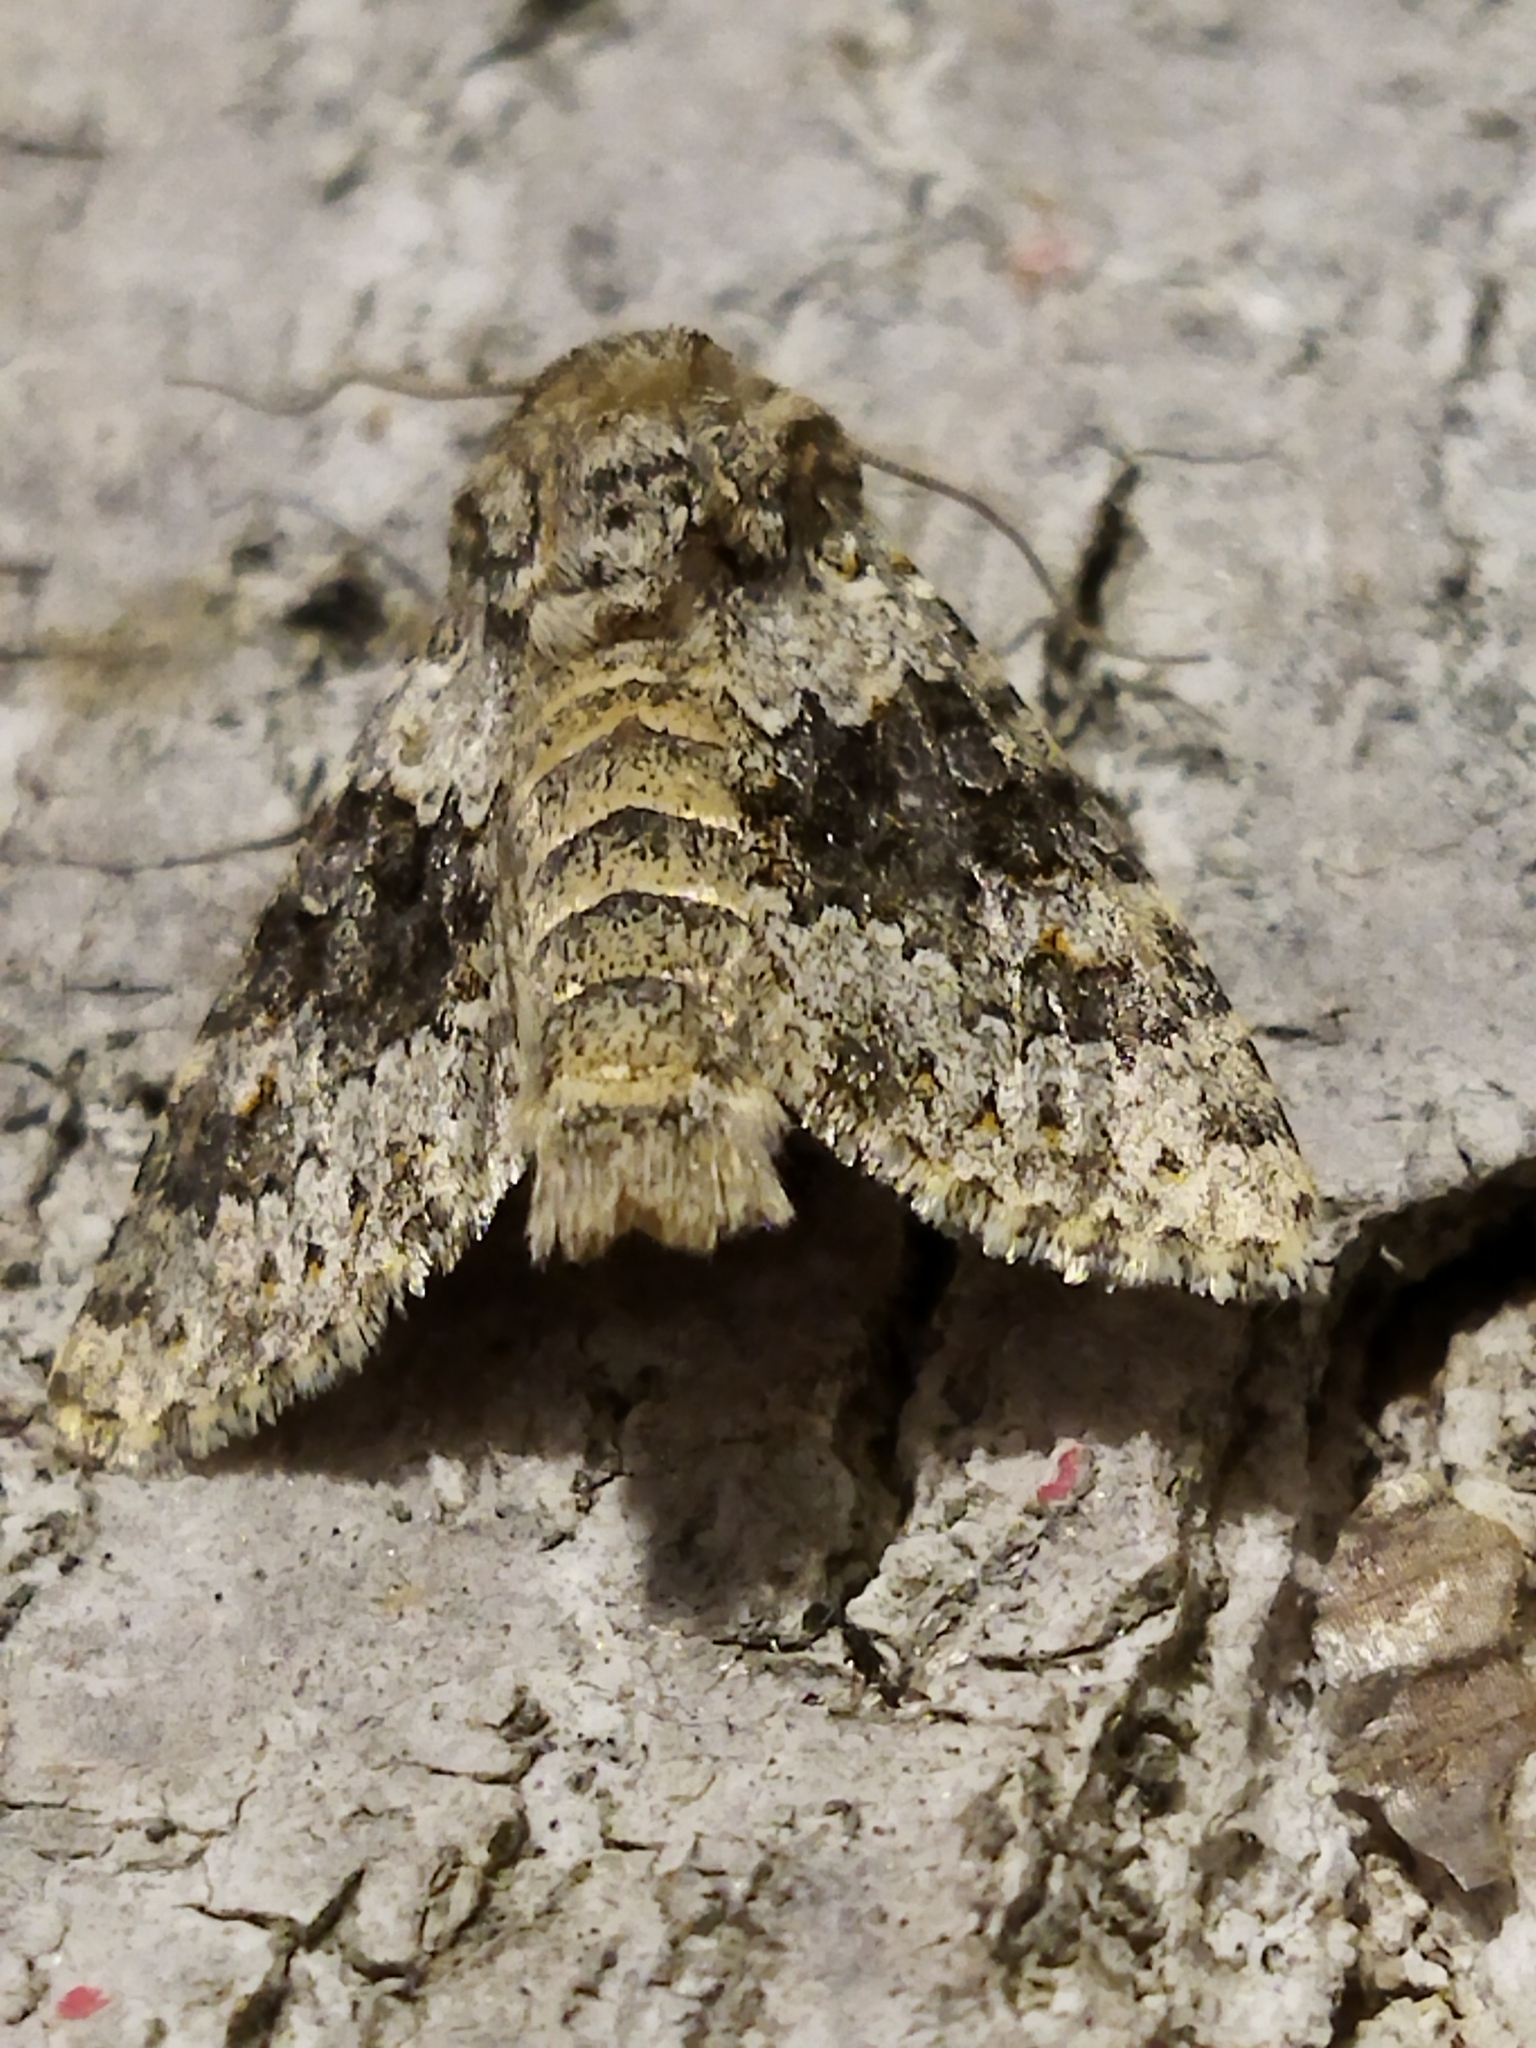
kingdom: Animalia
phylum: Arthropoda
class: Insecta
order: Lepidoptera
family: Noctuidae
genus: Hecatera
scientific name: Hecatera dysodea
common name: Small ranunculus
